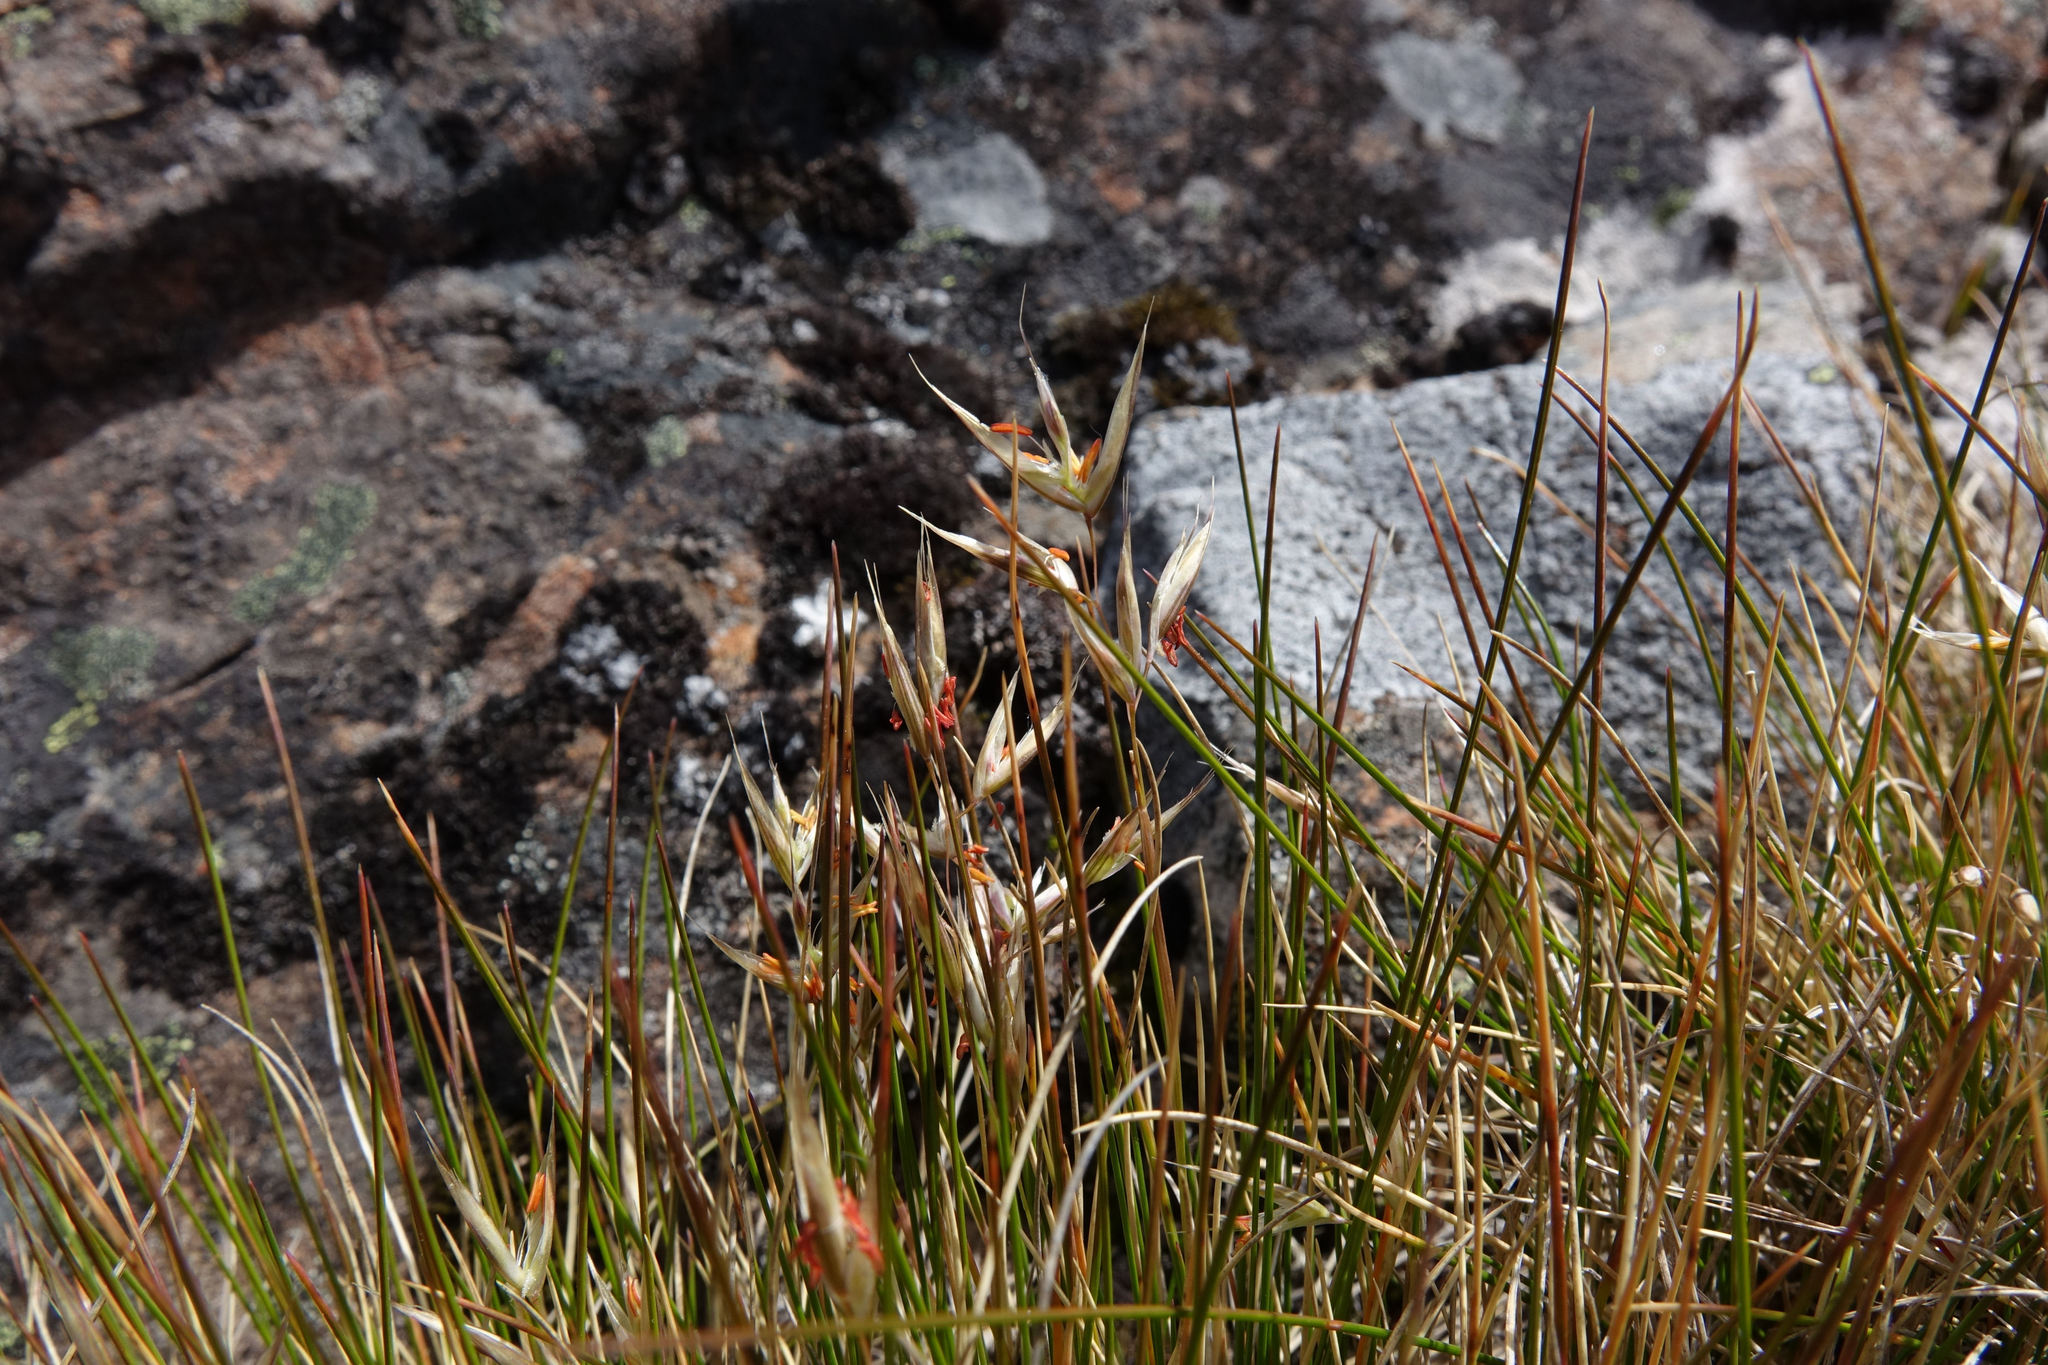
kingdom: Plantae
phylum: Tracheophyta
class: Liliopsida
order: Poales
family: Poaceae
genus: Rytidosperma
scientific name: Rytidosperma setifolium
